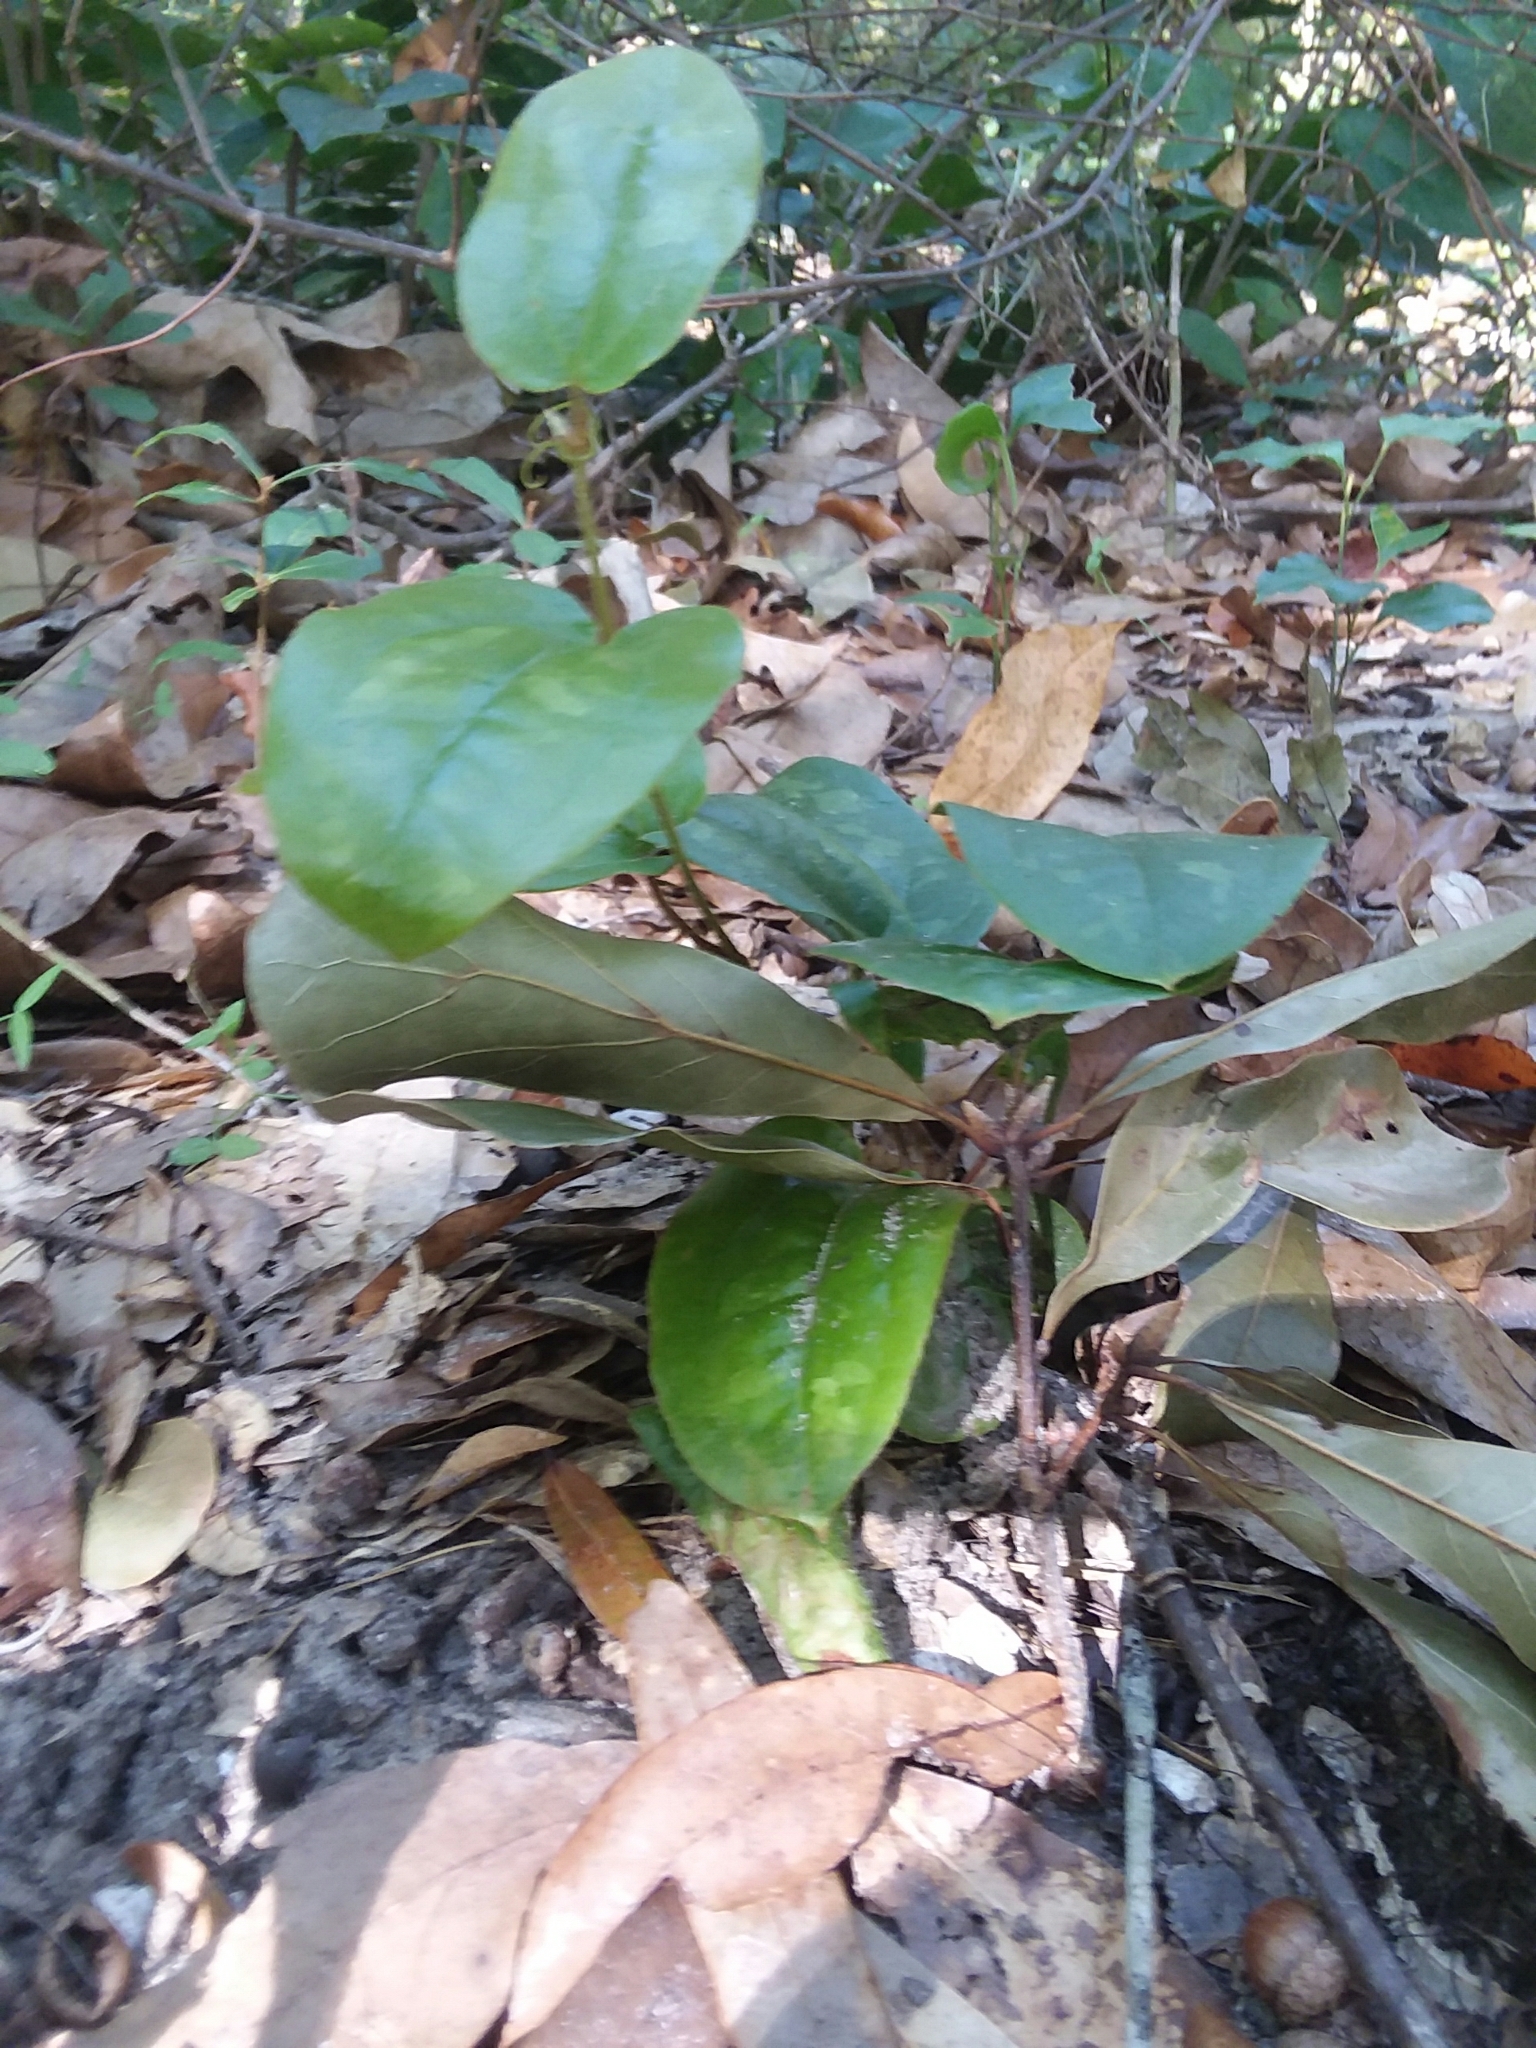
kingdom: Plantae
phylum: Tracheophyta
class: Liliopsida
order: Liliales
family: Smilacaceae
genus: Smilax
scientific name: Smilax pumila
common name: Sarsaparilla-vine
